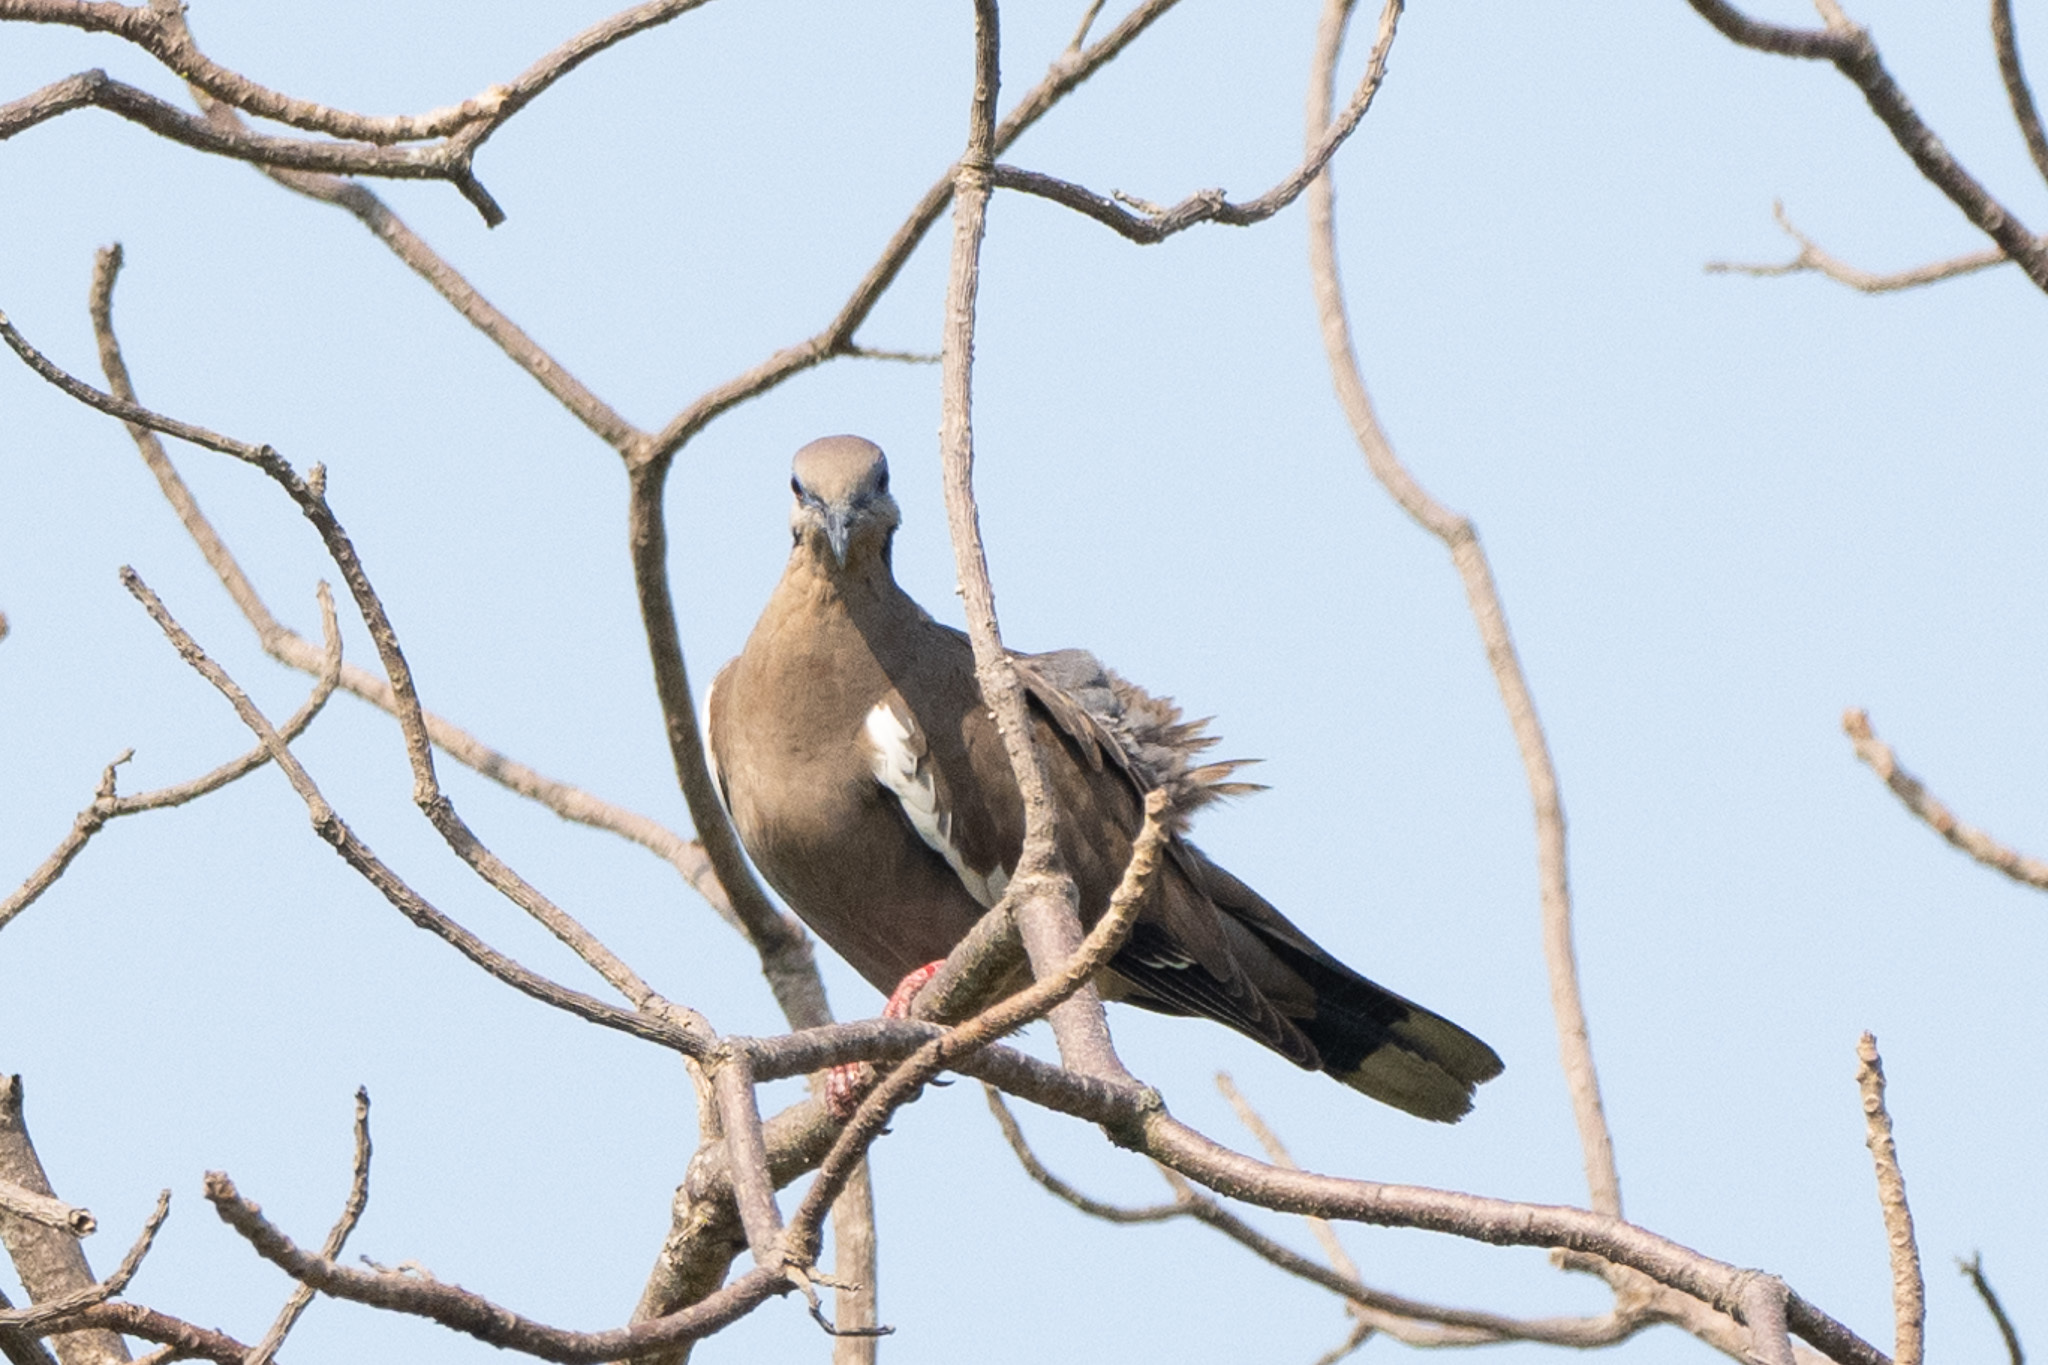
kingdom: Animalia
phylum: Chordata
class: Aves
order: Columbiformes
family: Columbidae
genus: Zenaida
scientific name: Zenaida asiatica
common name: White-winged dove
